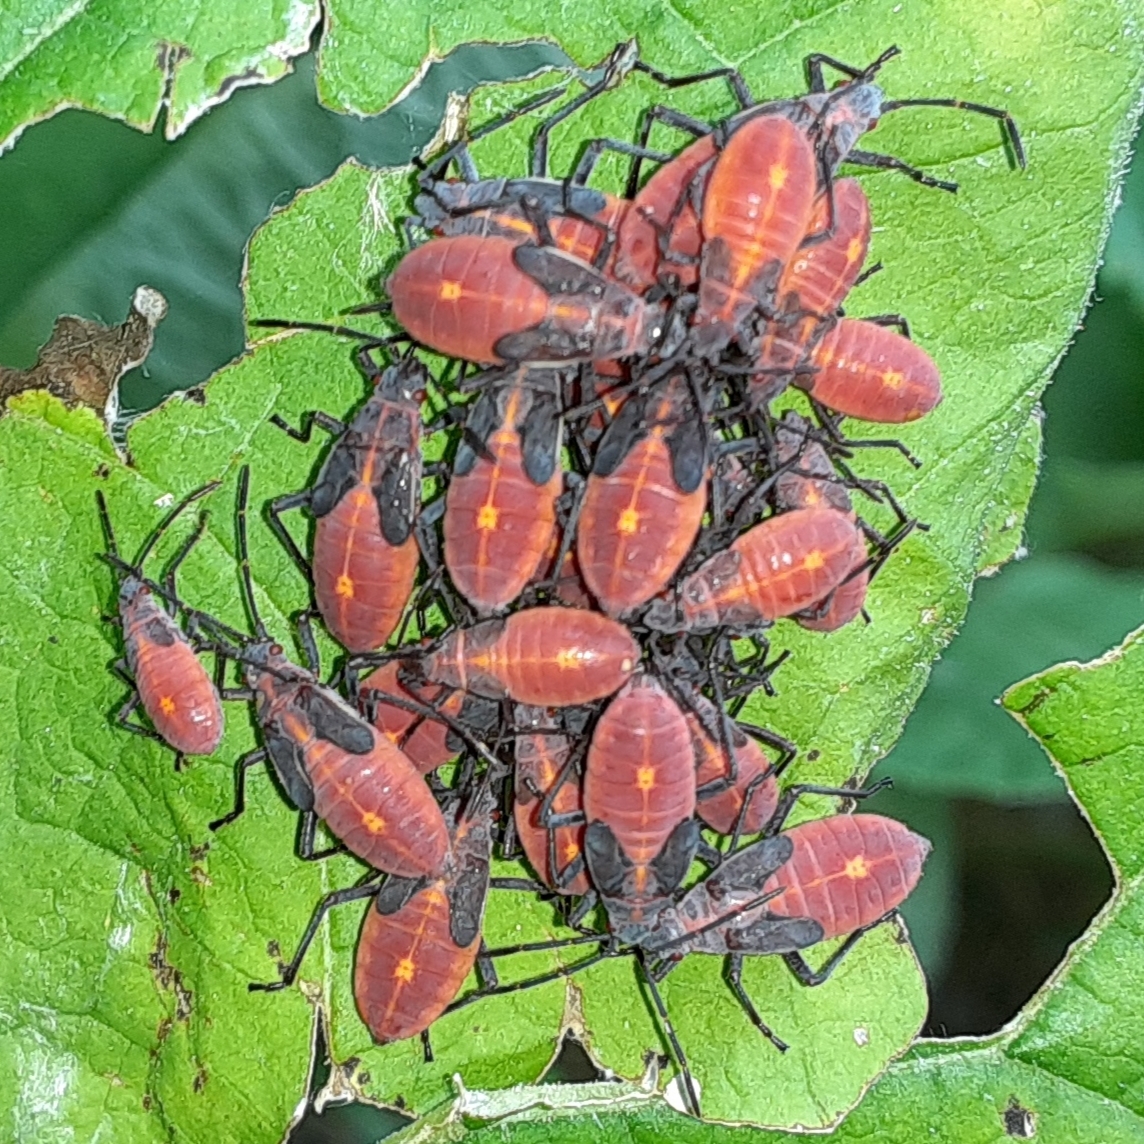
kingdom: Animalia
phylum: Arthropoda
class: Insecta
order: Hemiptera
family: Rhopalidae
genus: Boisea
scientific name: Boisea trivittata
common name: Boxelder bug
